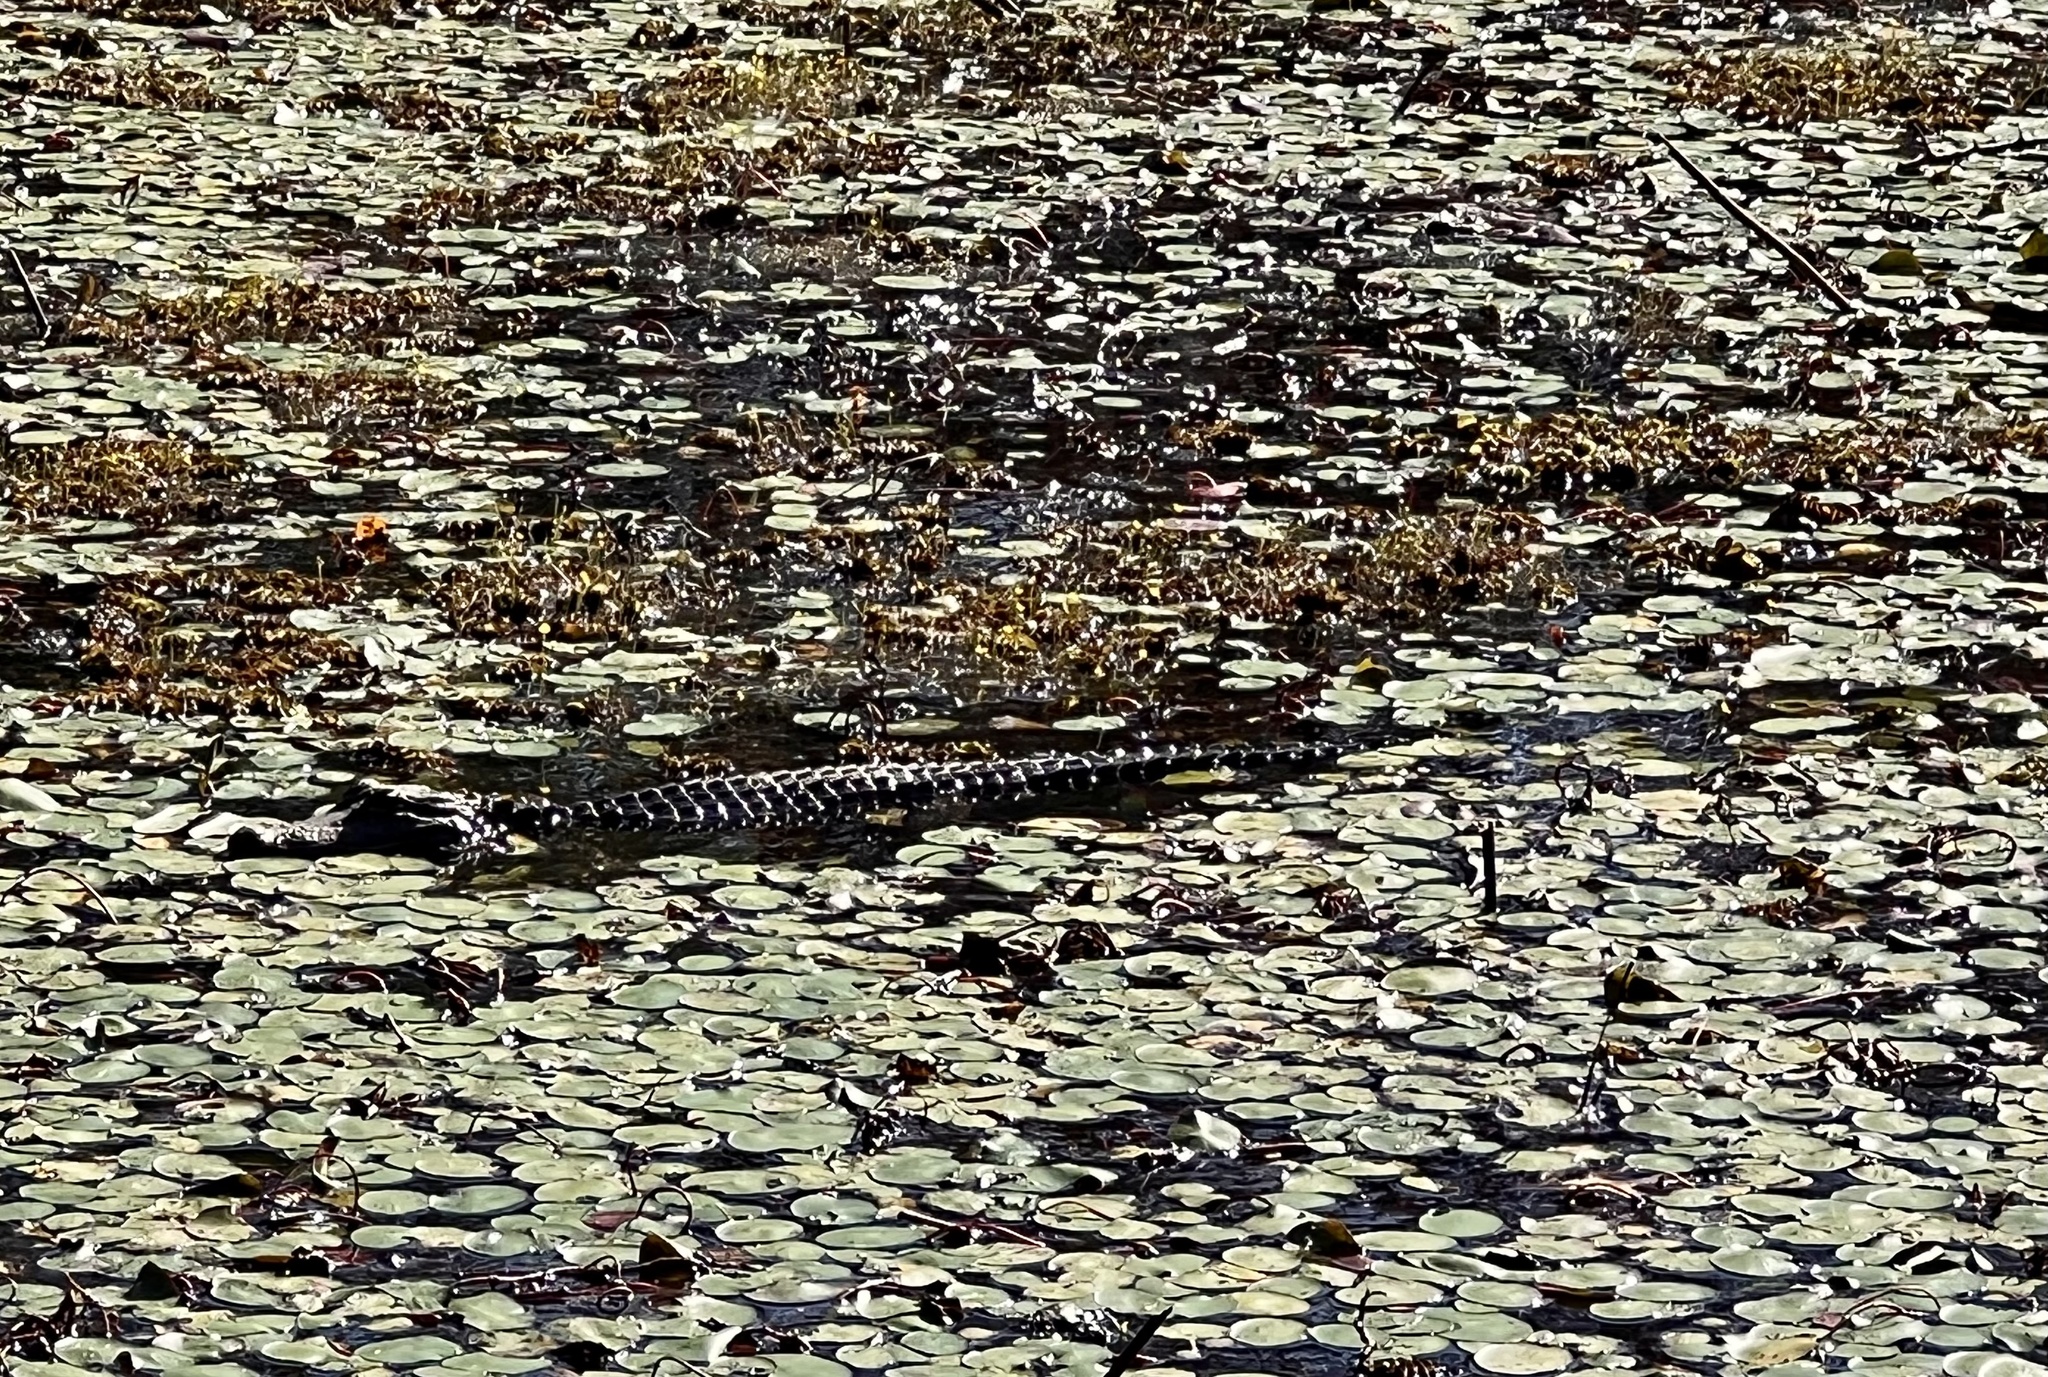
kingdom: Animalia
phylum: Chordata
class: Crocodylia
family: Alligatoridae
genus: Alligator
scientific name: Alligator mississippiensis
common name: American alligator
